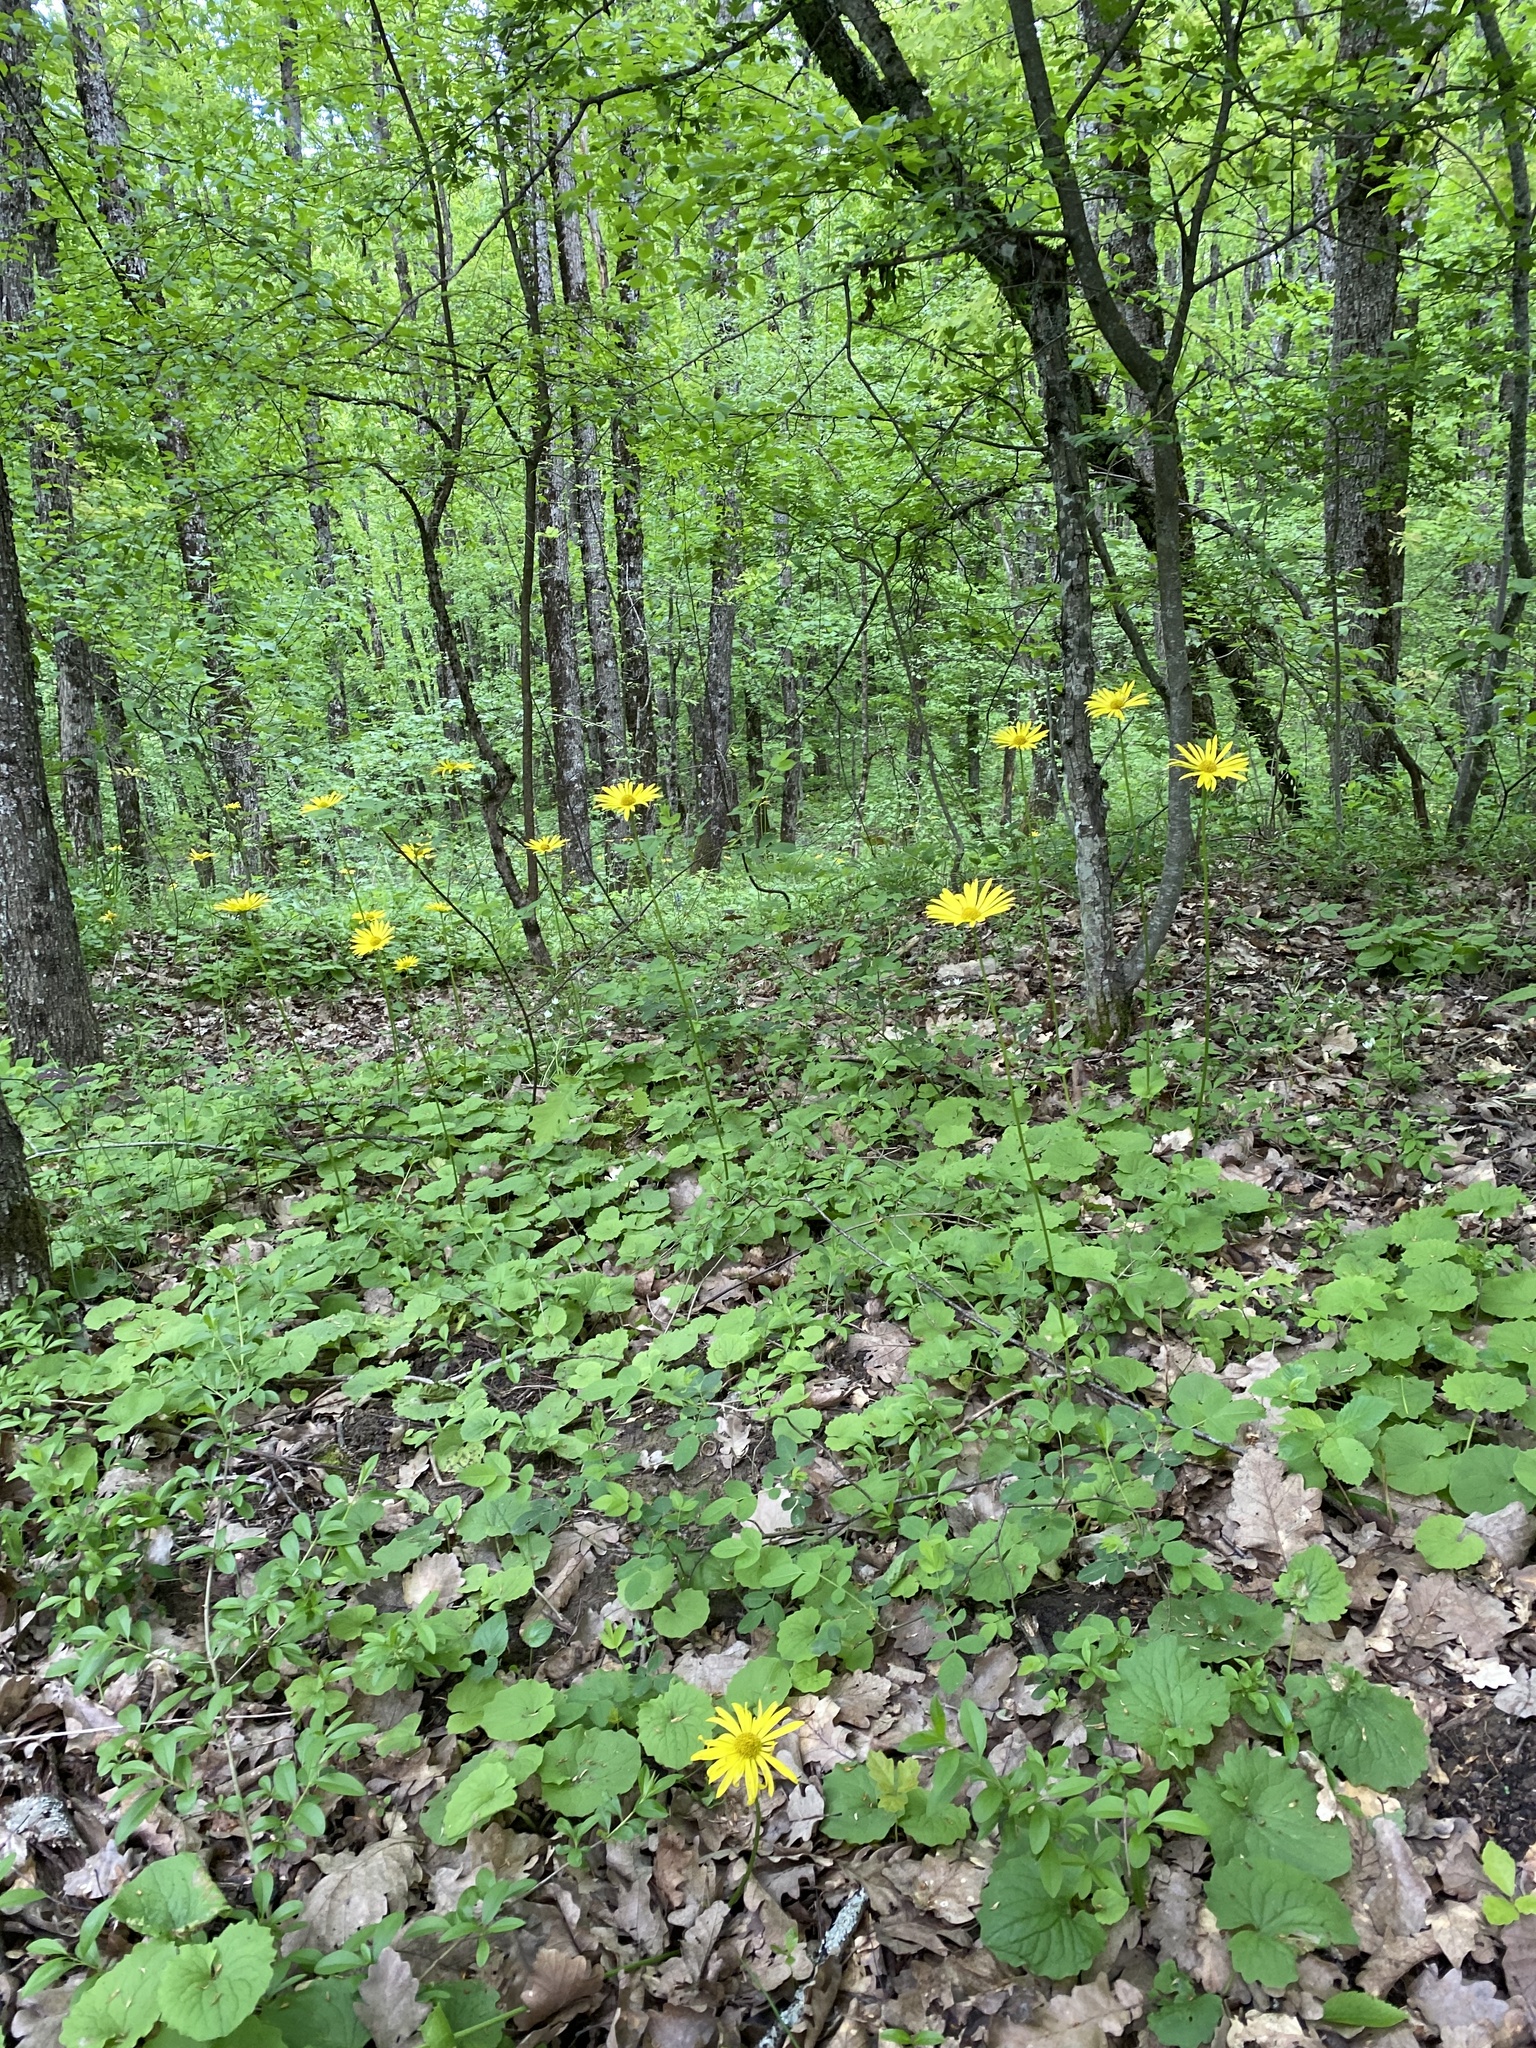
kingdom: Plantae
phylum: Tracheophyta
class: Magnoliopsida
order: Asterales
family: Asteraceae
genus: Doronicum
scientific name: Doronicum
